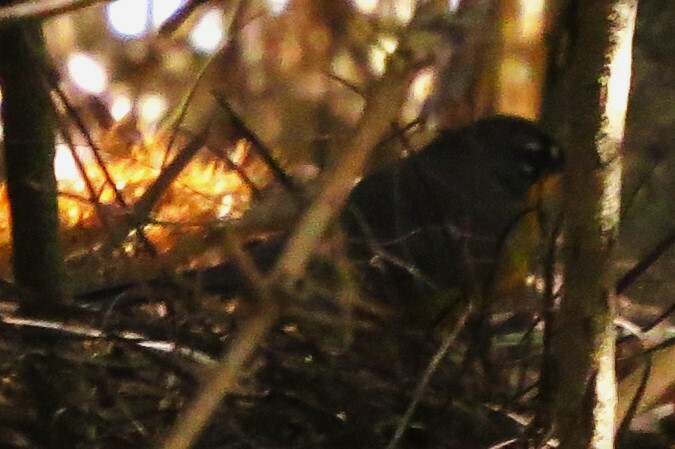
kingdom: Animalia
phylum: Chordata
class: Aves
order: Passeriformes
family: Parulidae
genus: Basileuterus
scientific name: Basileuterus lachrymosus
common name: Fan-tailed warbler
